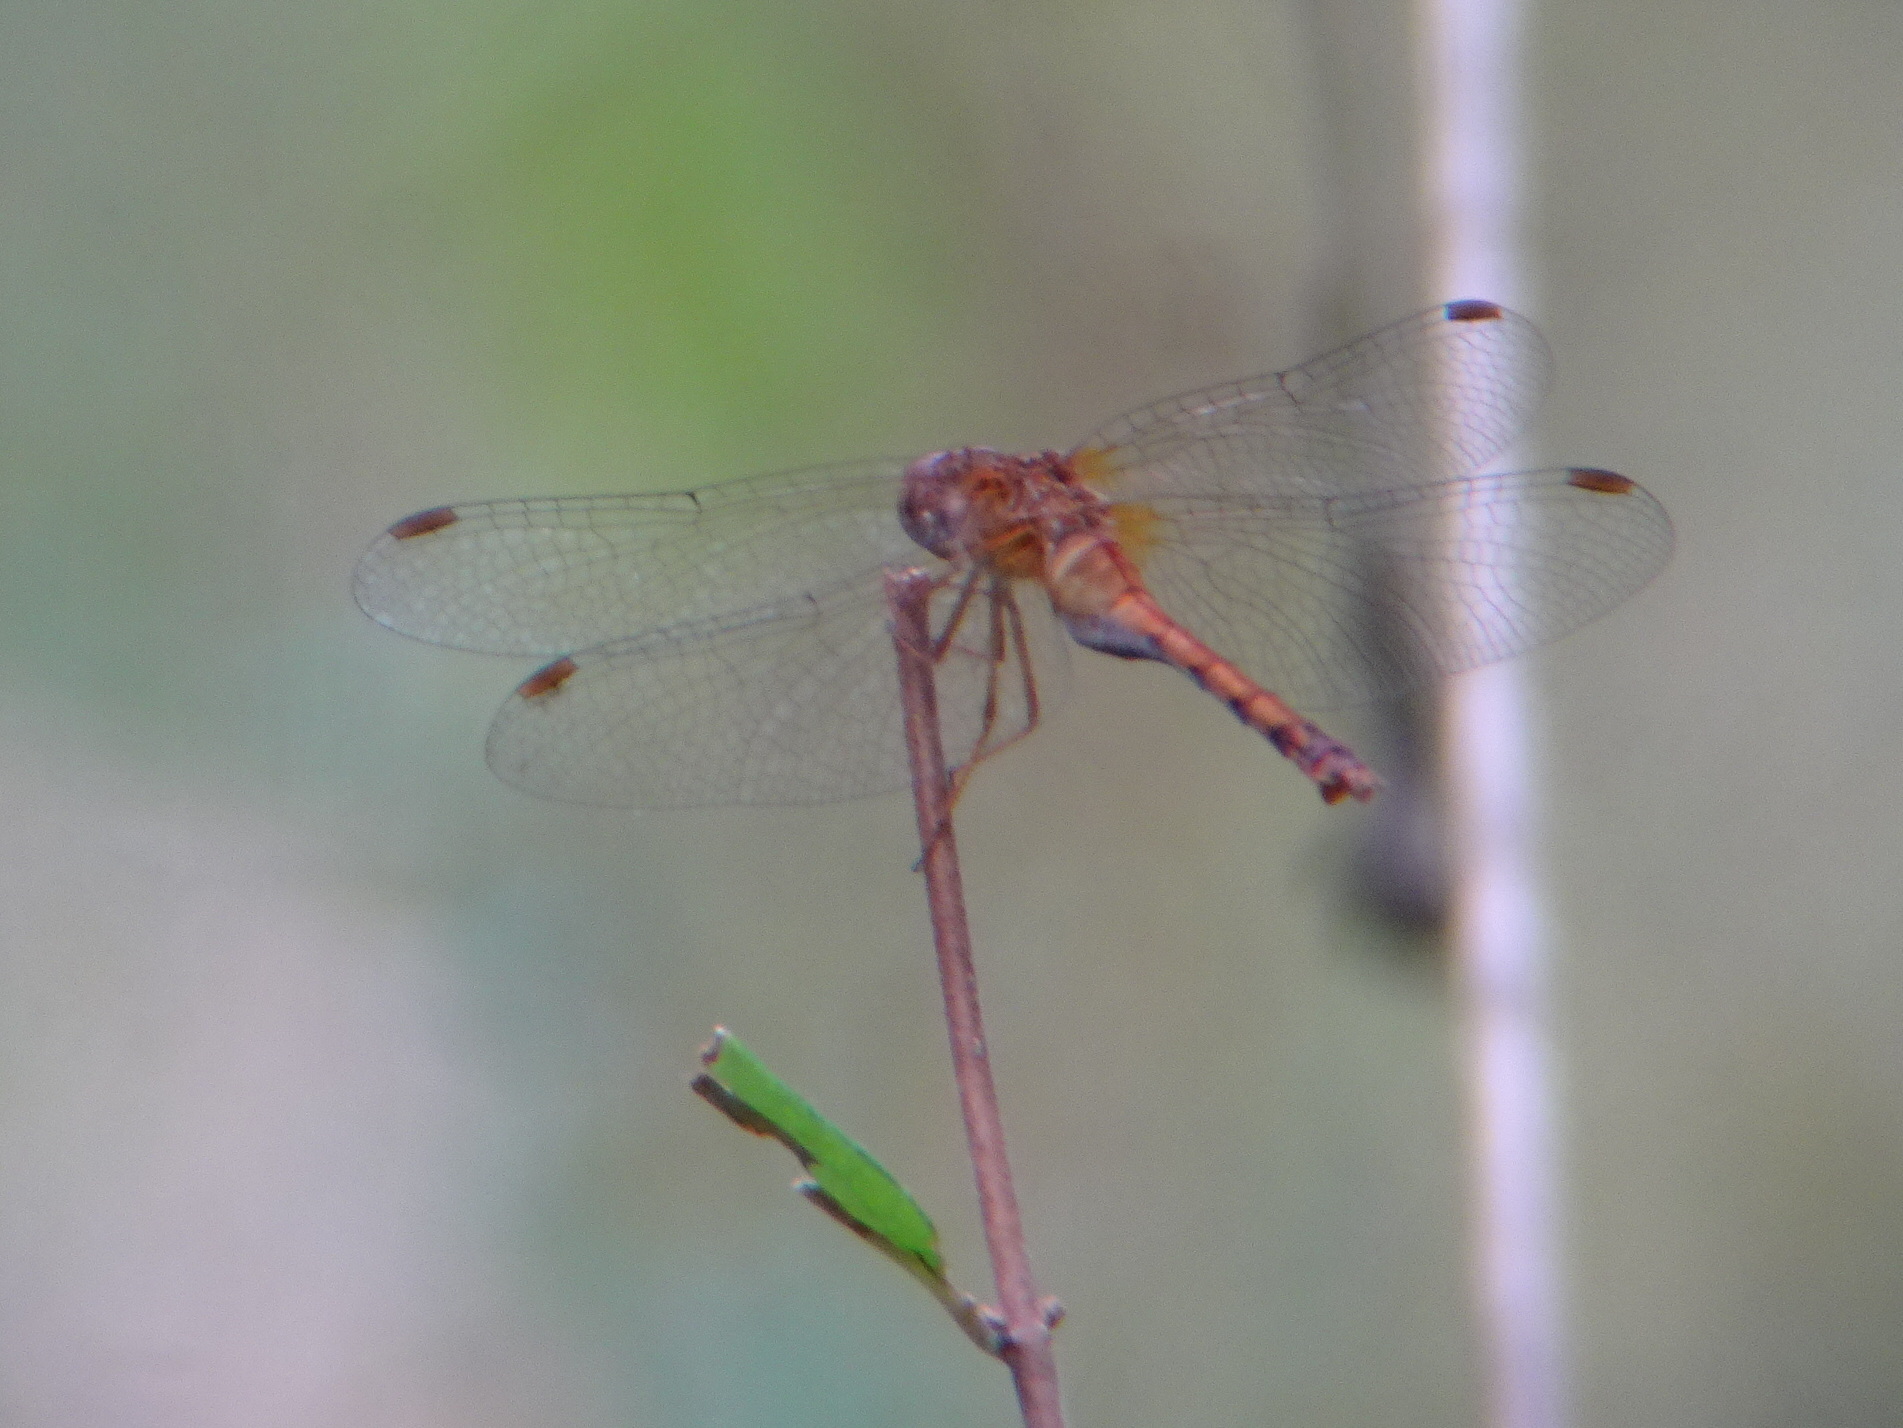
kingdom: Animalia
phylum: Arthropoda
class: Insecta
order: Odonata
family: Libellulidae
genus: Sympetrum
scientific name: Sympetrum vicinum
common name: Autumn meadowhawk
